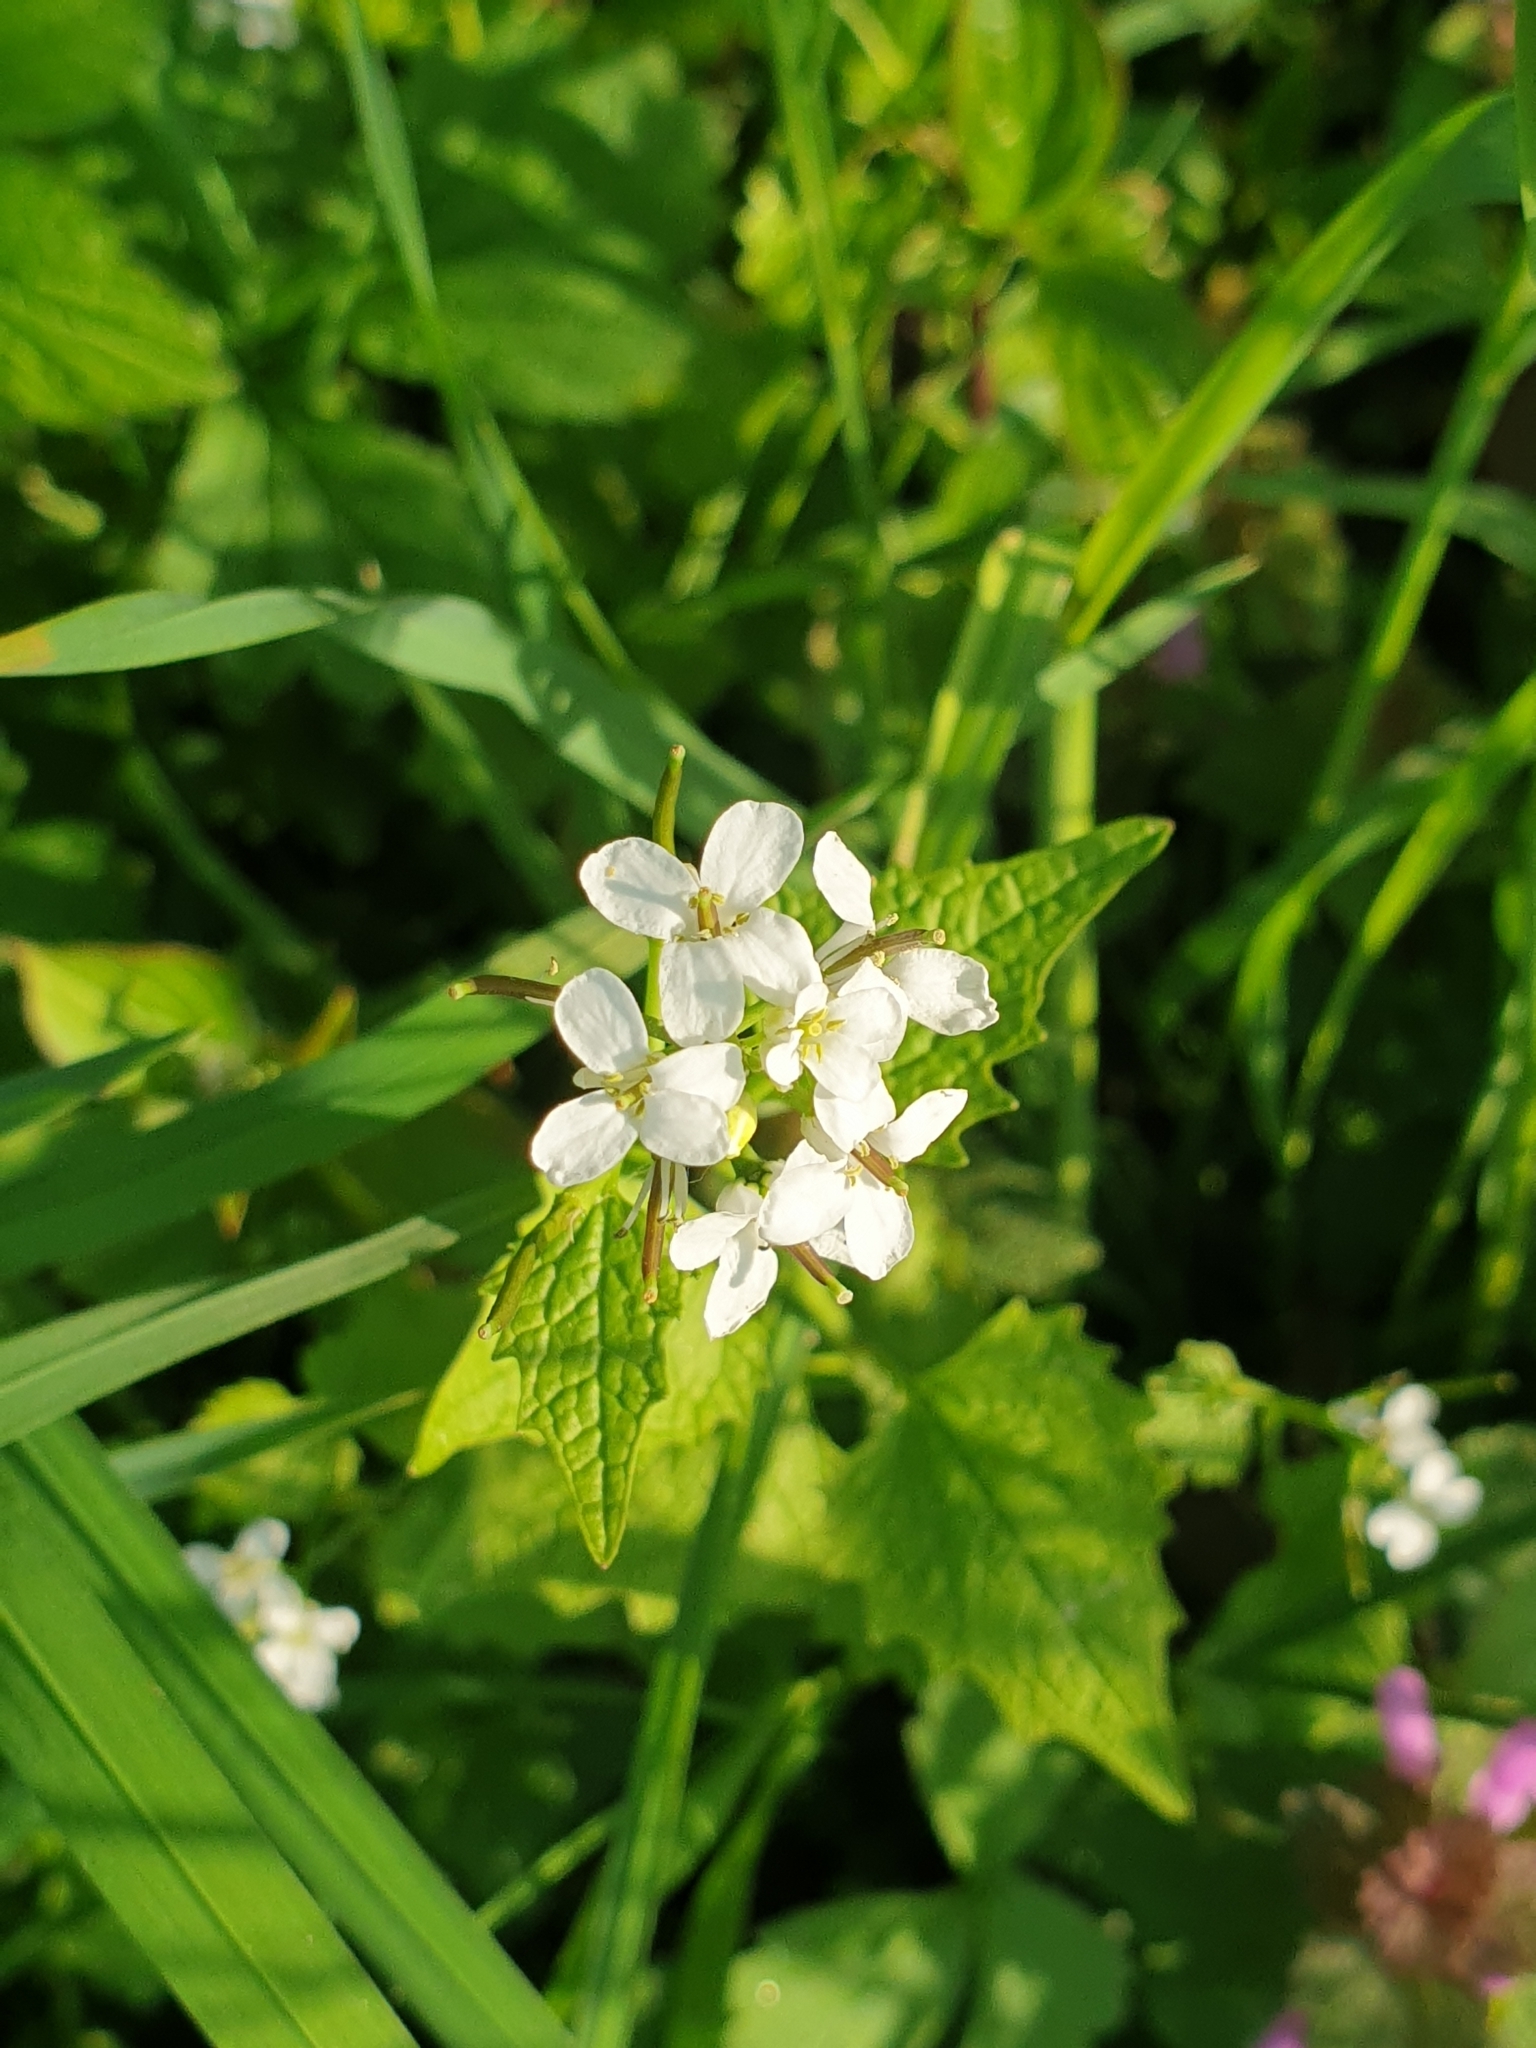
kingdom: Plantae
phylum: Tracheophyta
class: Magnoliopsida
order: Brassicales
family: Brassicaceae
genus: Alliaria
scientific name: Alliaria petiolata
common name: Garlic mustard
